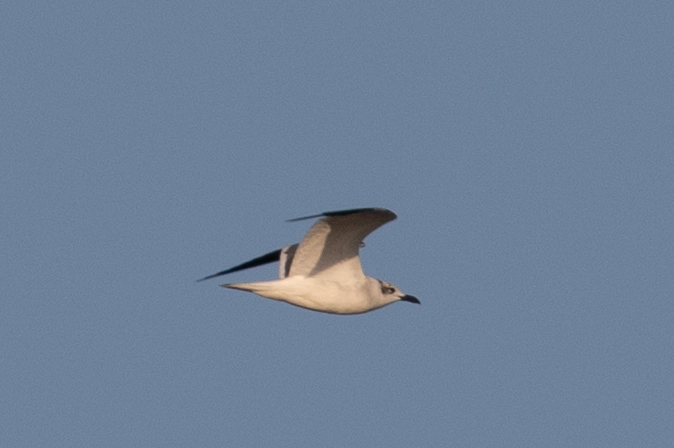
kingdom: Animalia
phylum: Chordata
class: Aves
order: Charadriiformes
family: Laridae
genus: Leucophaeus
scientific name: Leucophaeus atricilla
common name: Laughing gull
